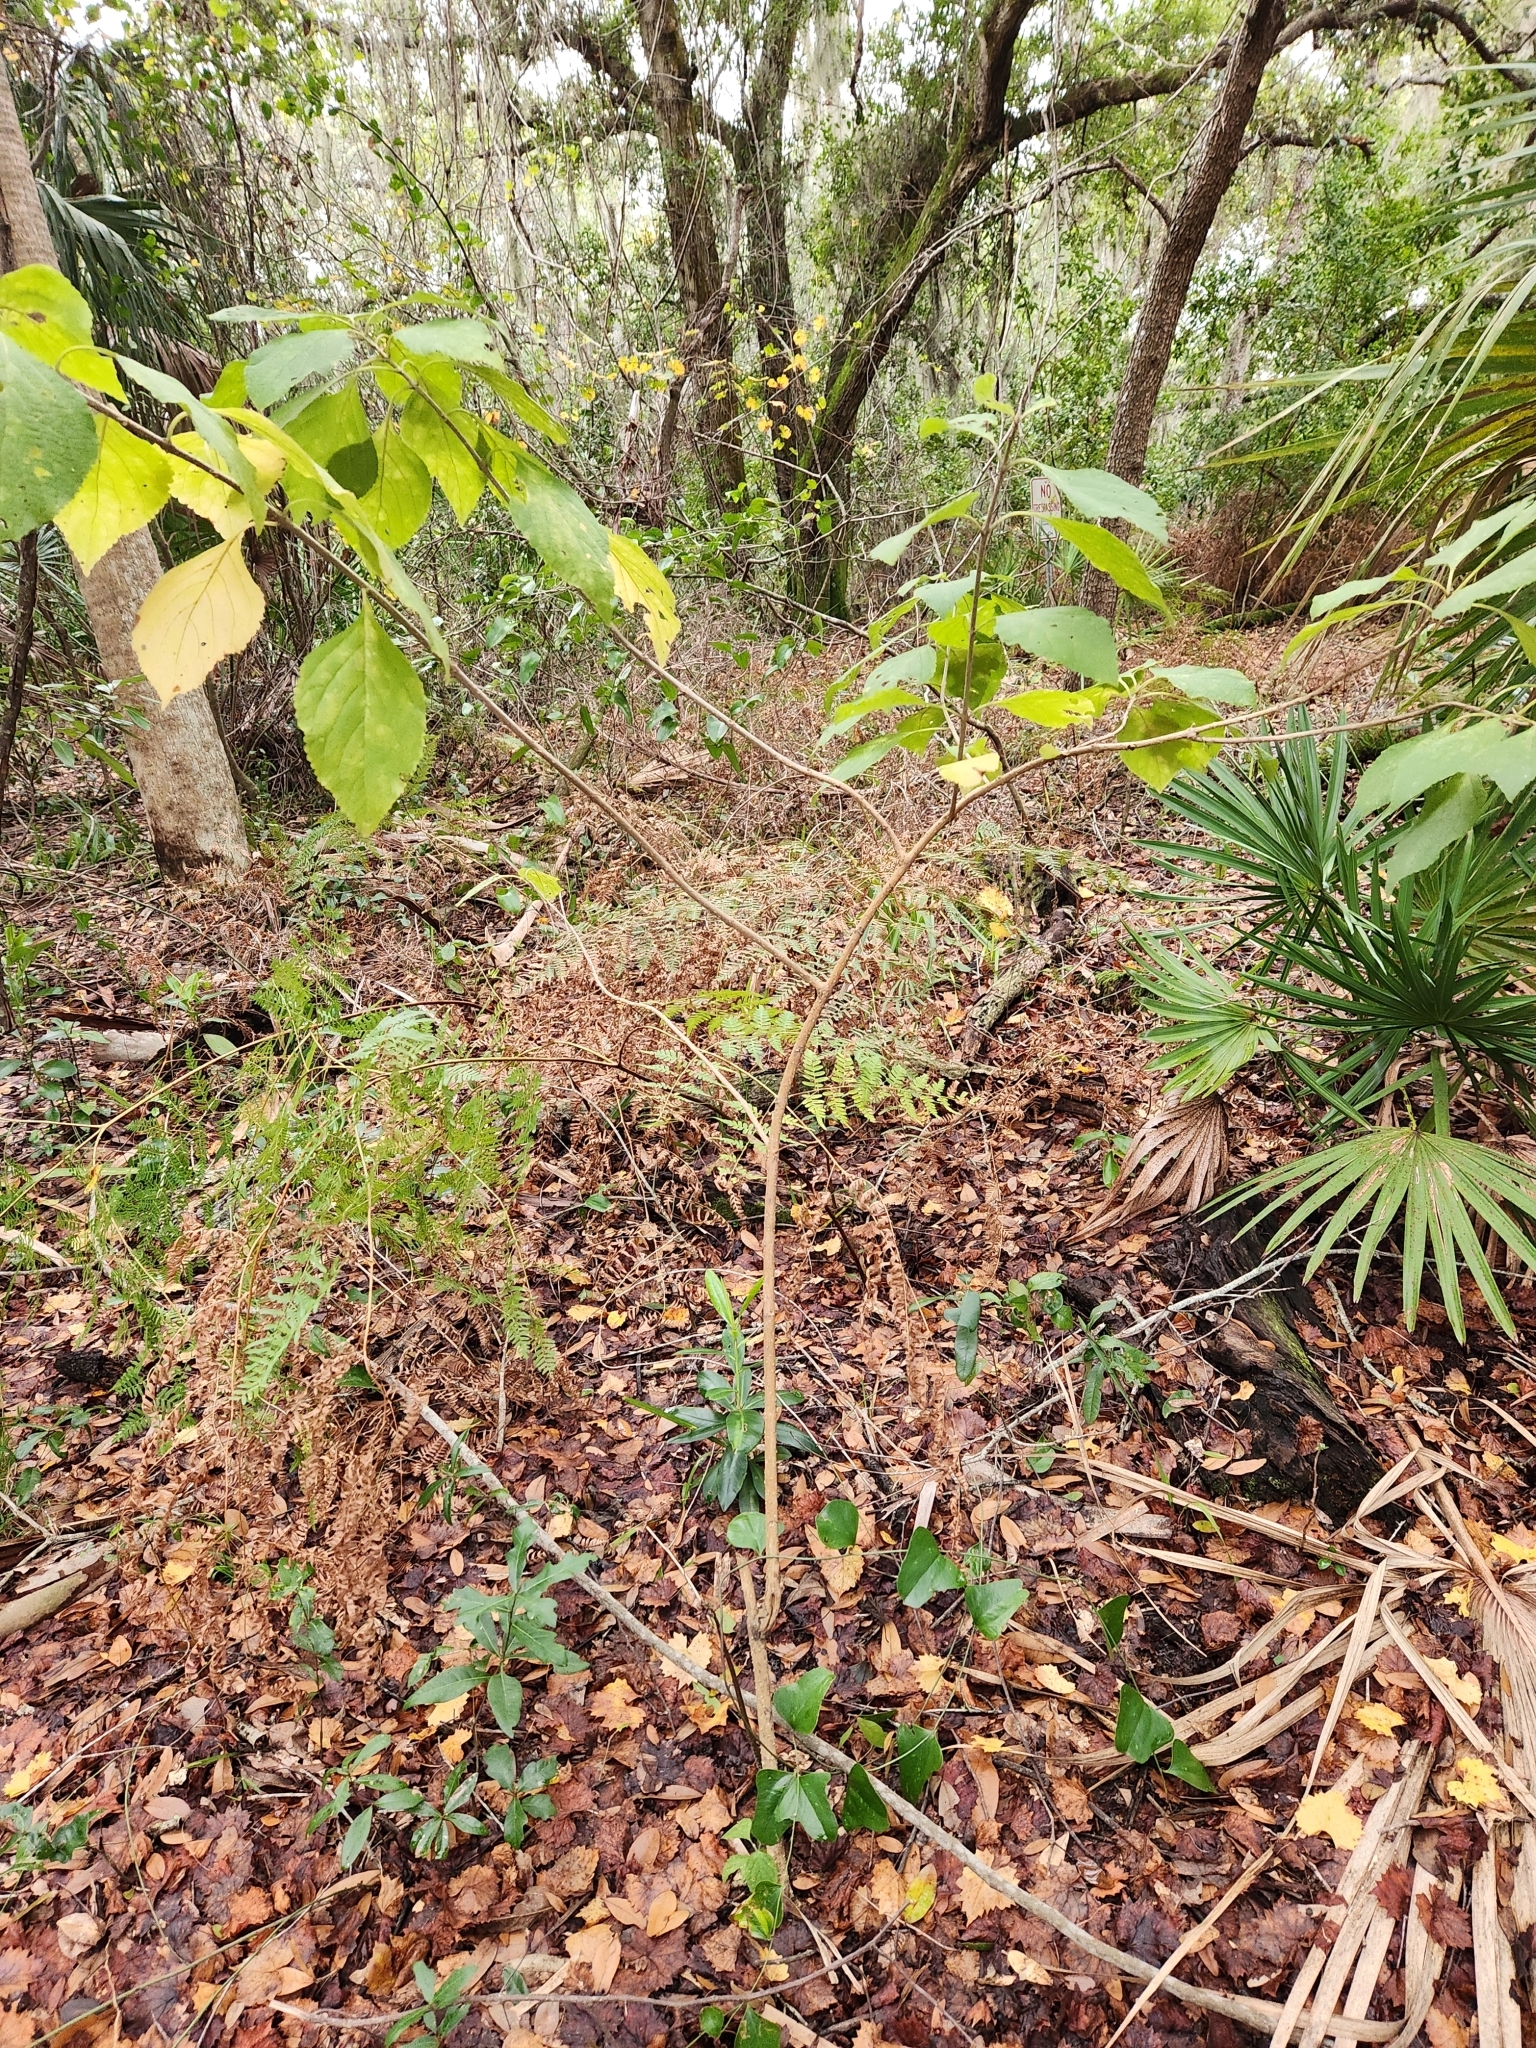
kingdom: Plantae
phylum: Tracheophyta
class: Magnoliopsida
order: Lamiales
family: Lamiaceae
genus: Callicarpa
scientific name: Callicarpa americana
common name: American beautyberry
